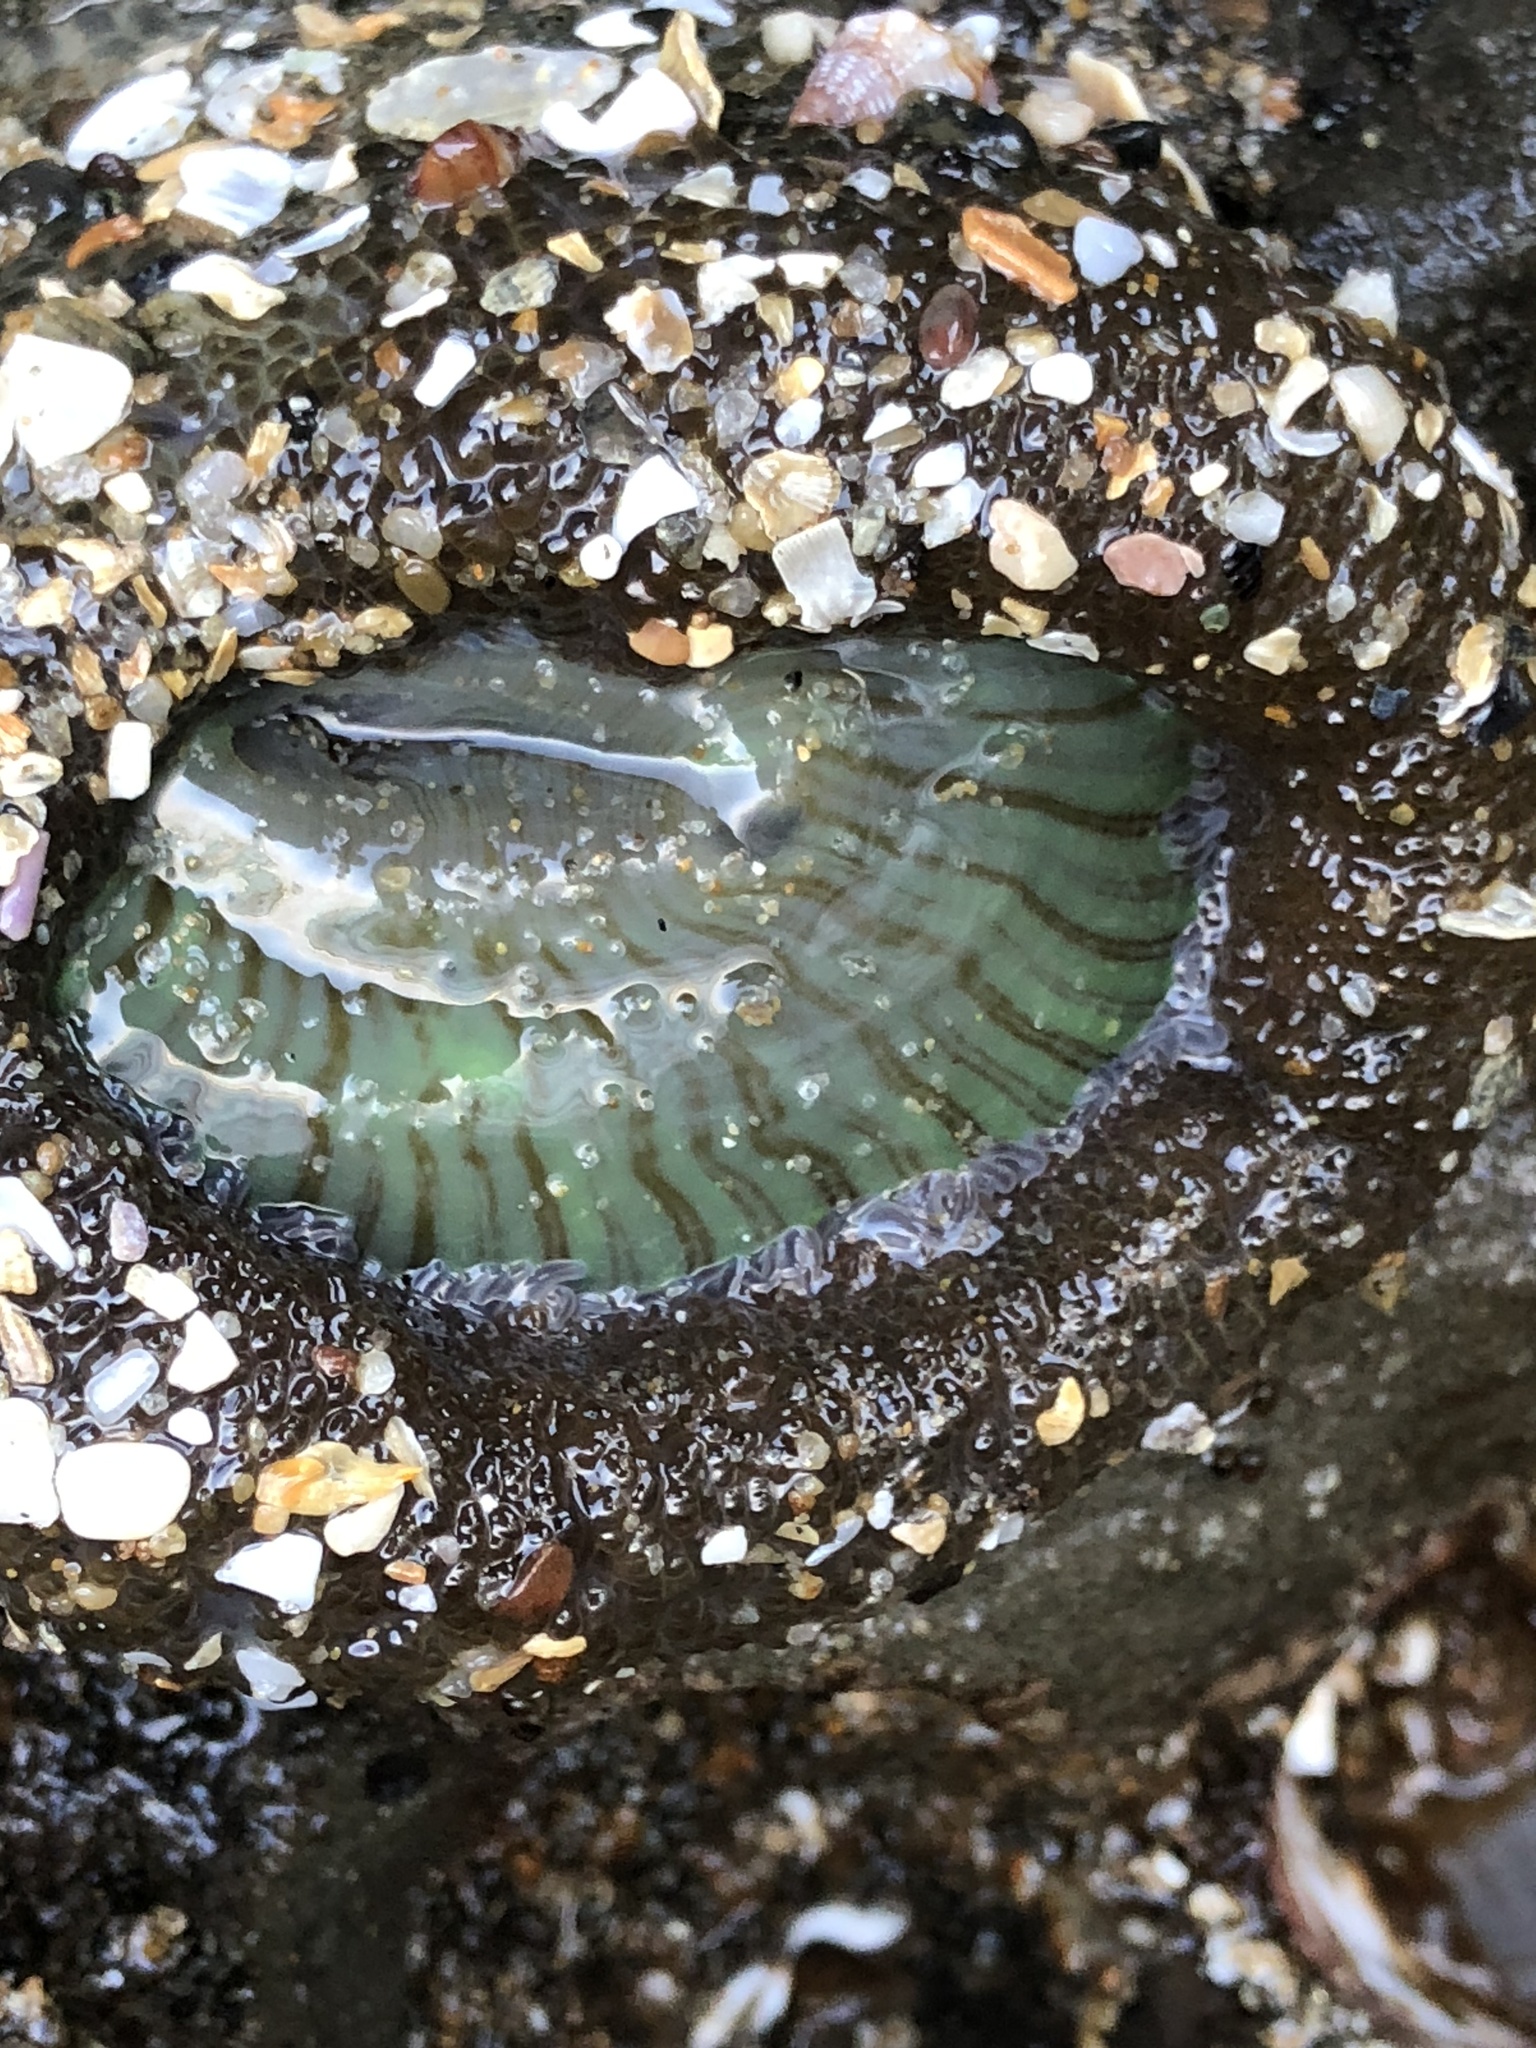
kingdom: Animalia
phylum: Cnidaria
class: Anthozoa
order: Actiniaria
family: Actiniidae
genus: Anthopleura
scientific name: Anthopleura sola
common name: Sun anemone
